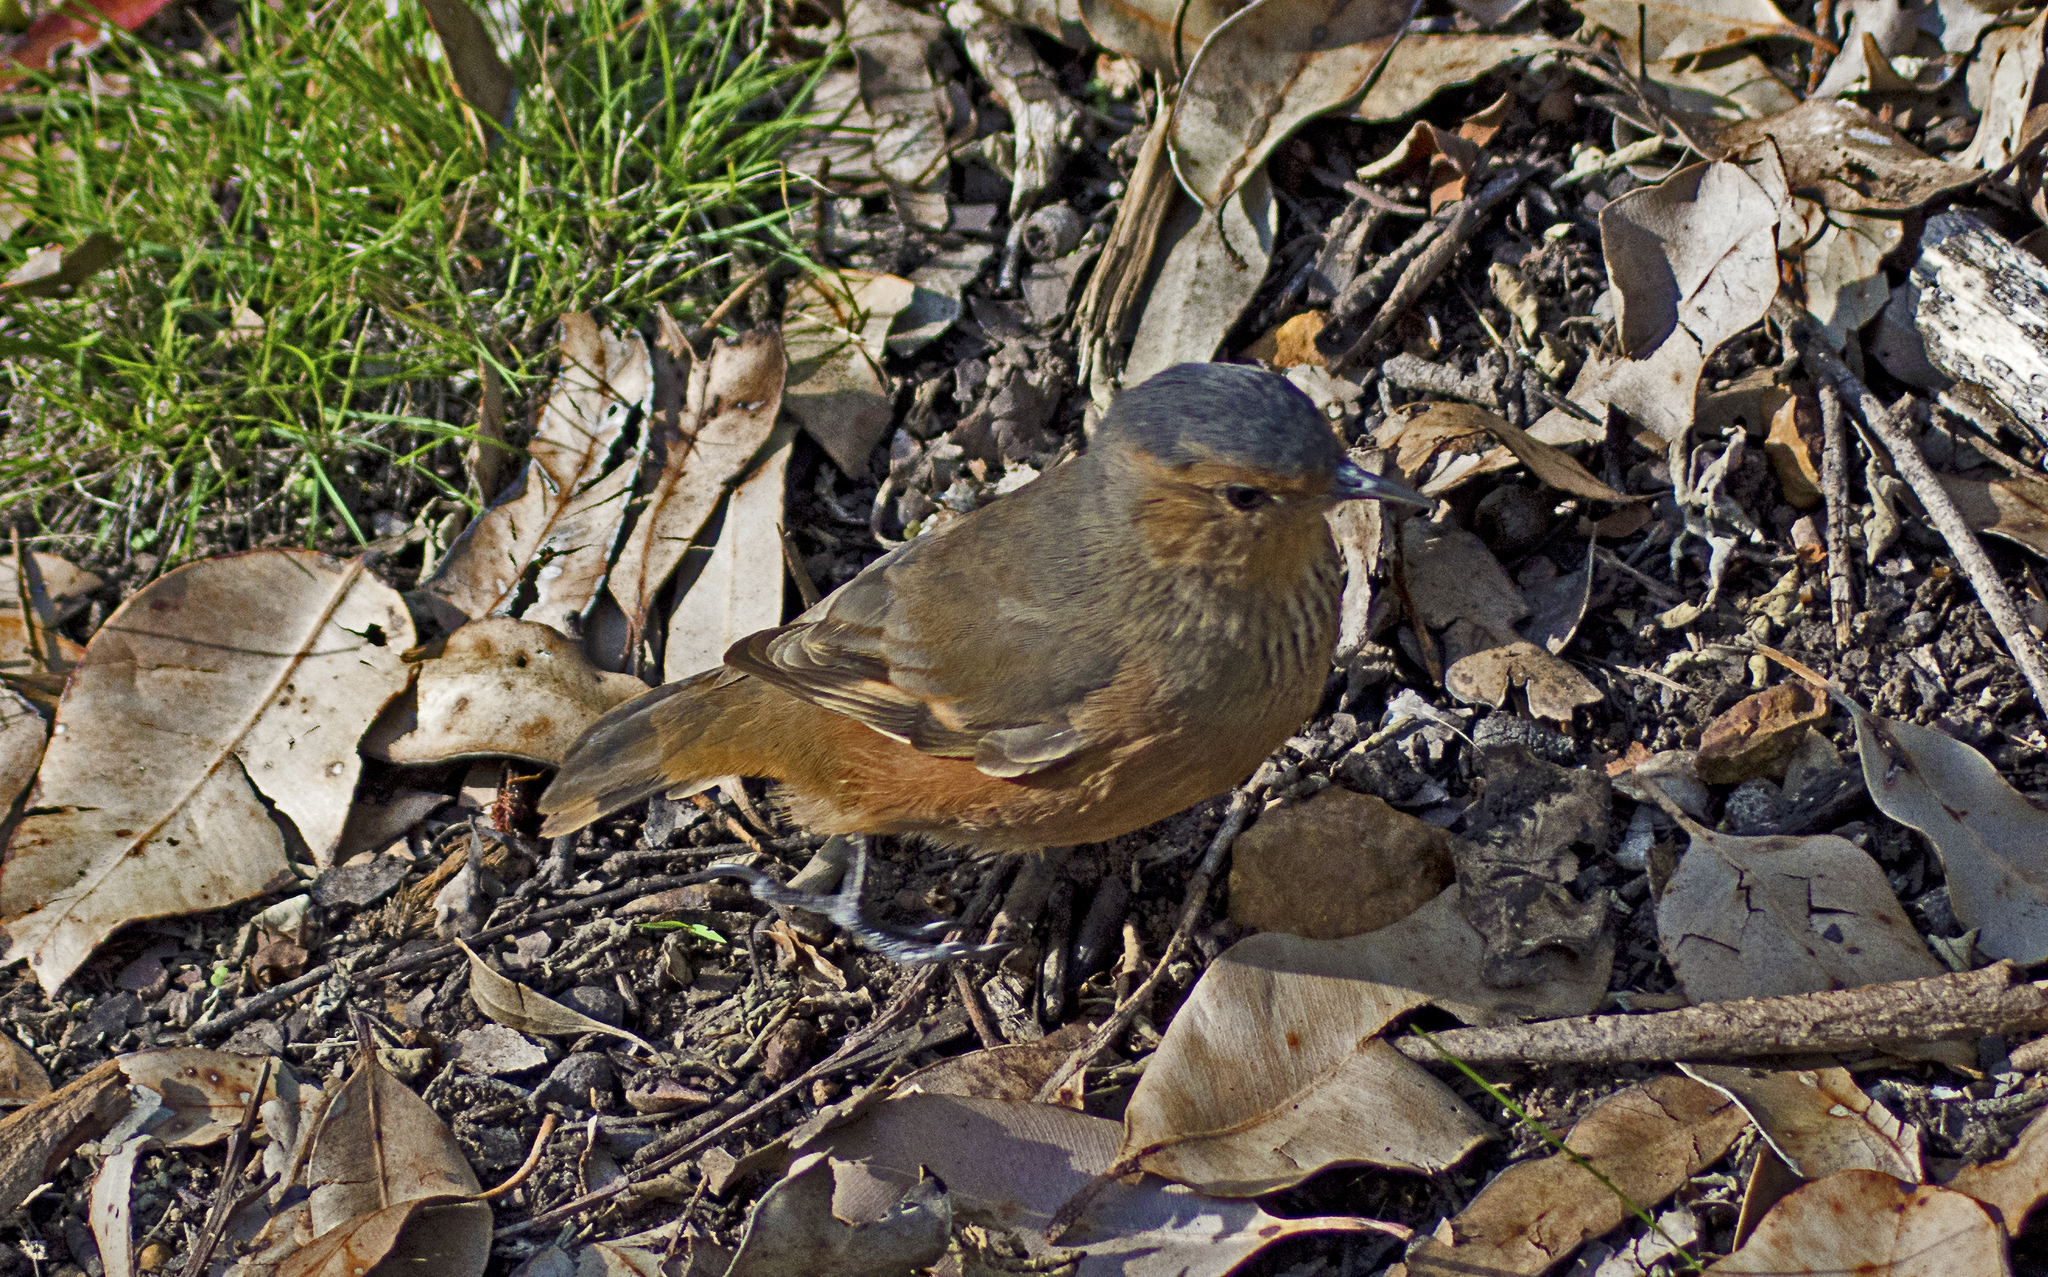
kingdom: Animalia
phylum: Chordata
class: Aves
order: Passeriformes
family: Climacteridae
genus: Climacteris
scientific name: Climacteris rufus
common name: Rufous treecreeper
